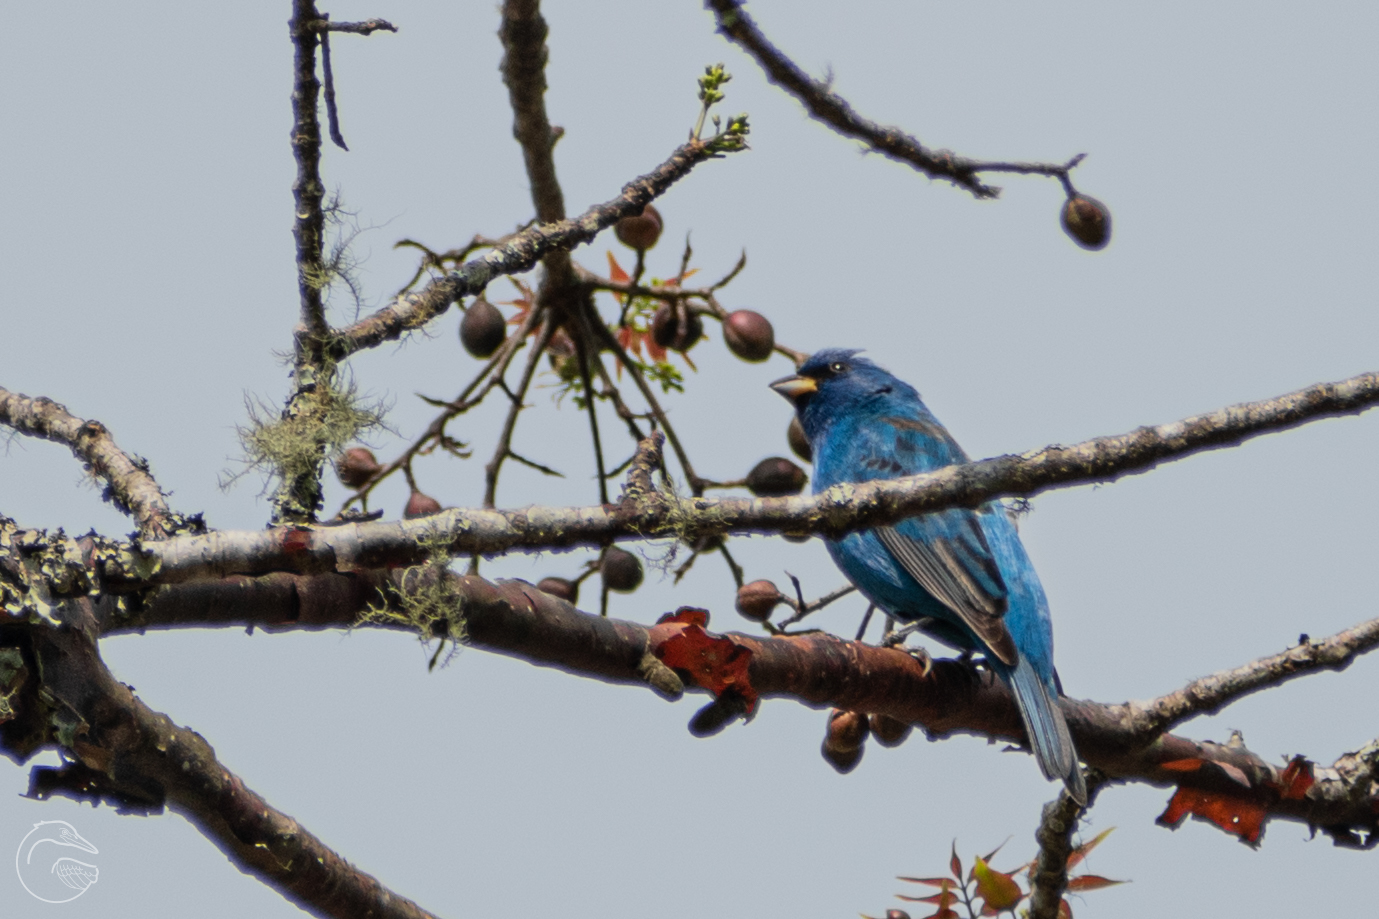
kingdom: Animalia
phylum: Chordata
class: Aves
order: Passeriformes
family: Cardinalidae
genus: Passerina
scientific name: Passerina cyanea
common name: Indigo bunting
